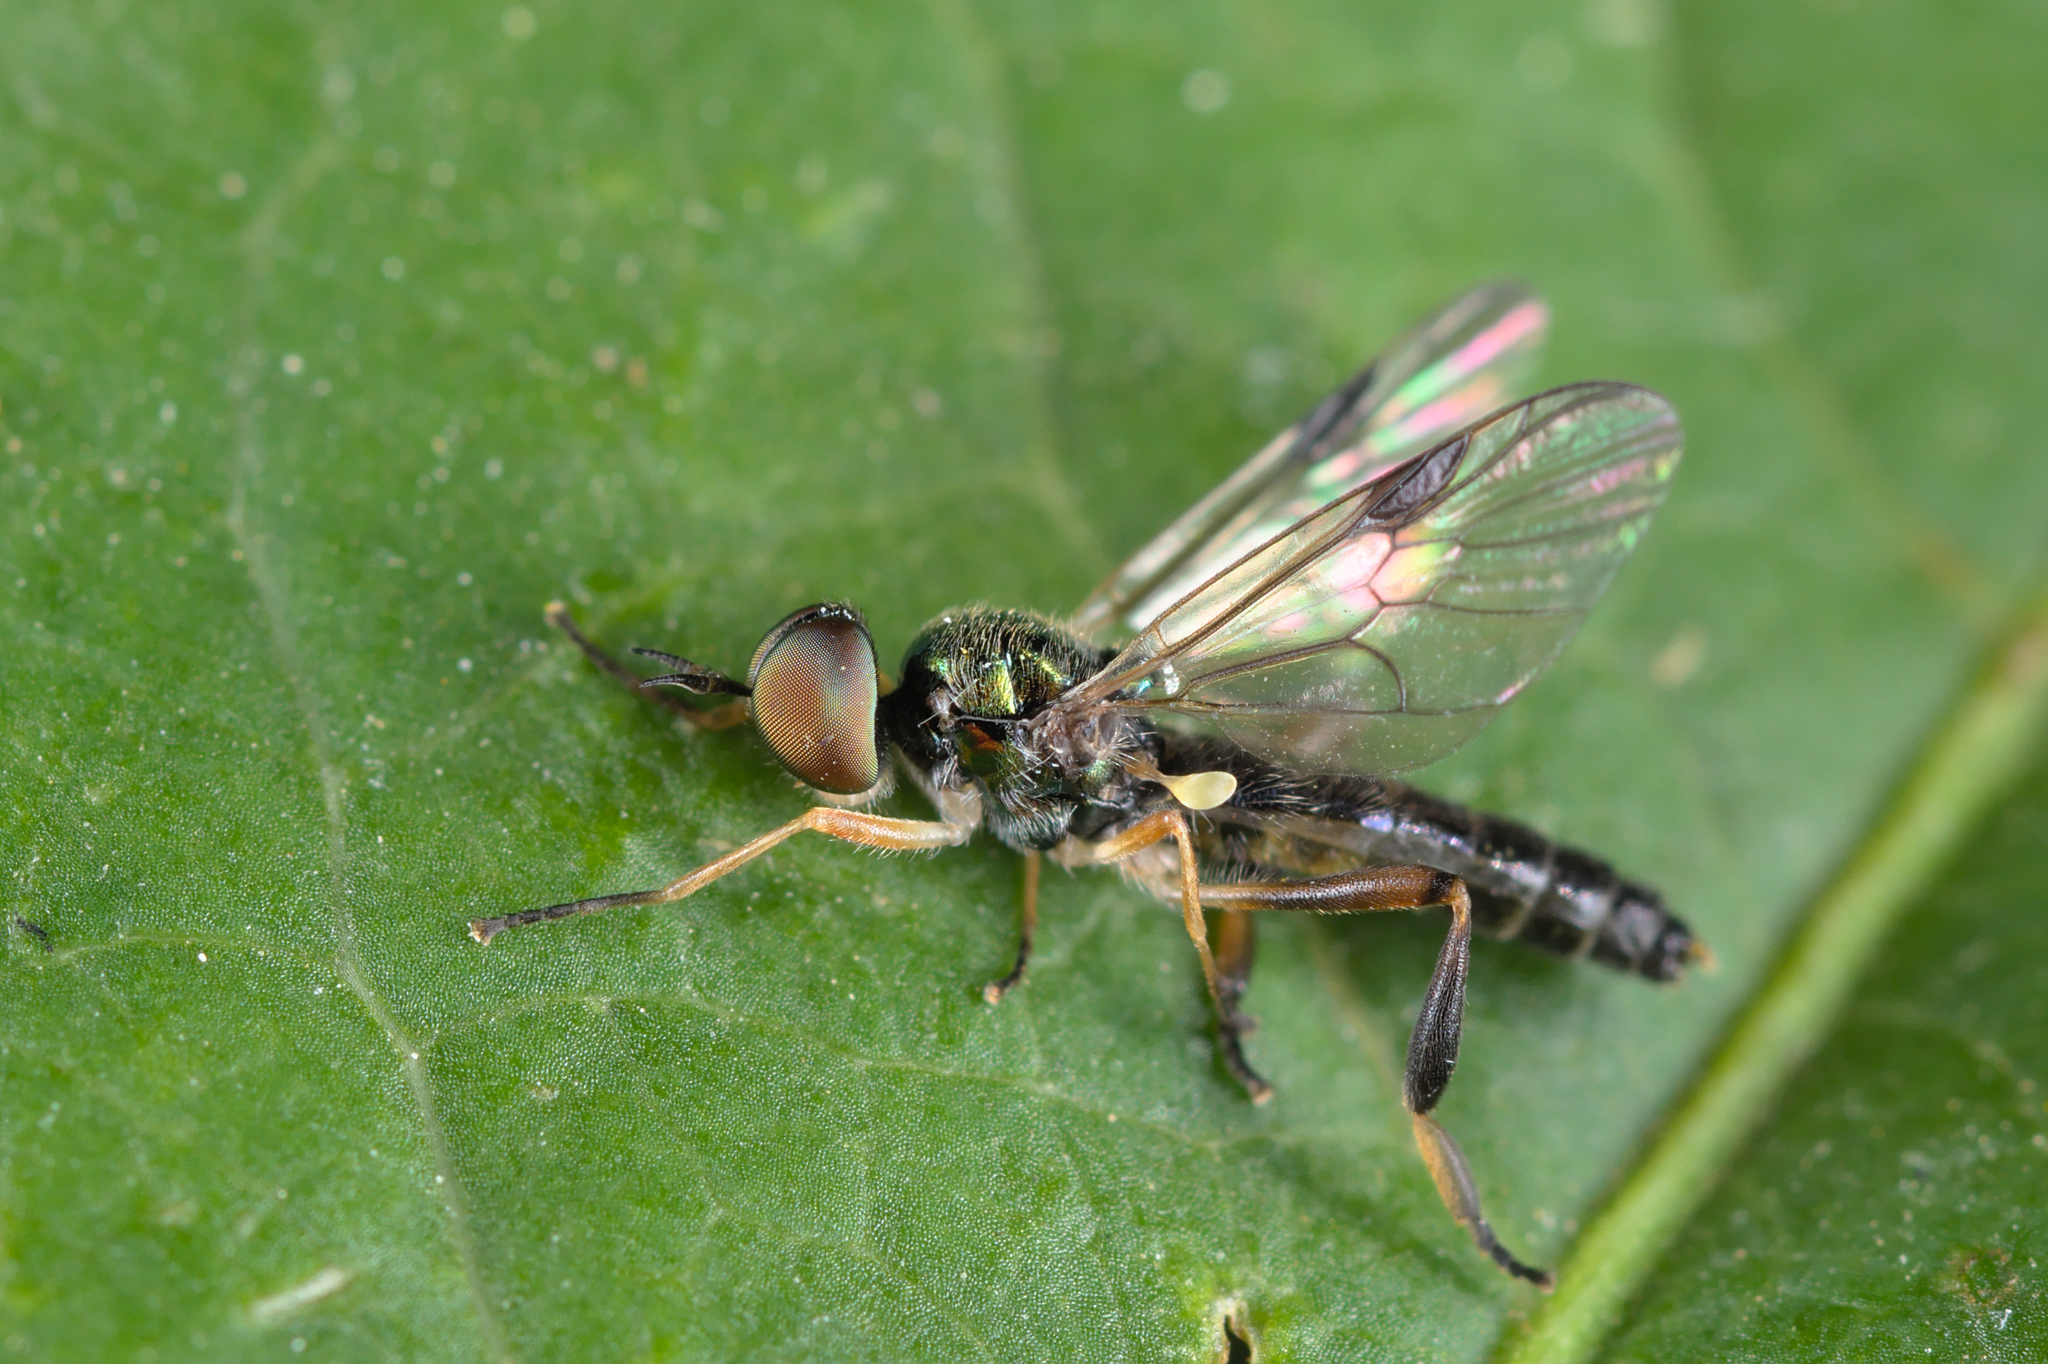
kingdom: Animalia
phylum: Arthropoda
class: Insecta
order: Diptera
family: Stratiomyidae
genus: Chorisops
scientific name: Chorisops tibialis
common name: Dull four-spined legionnaire
